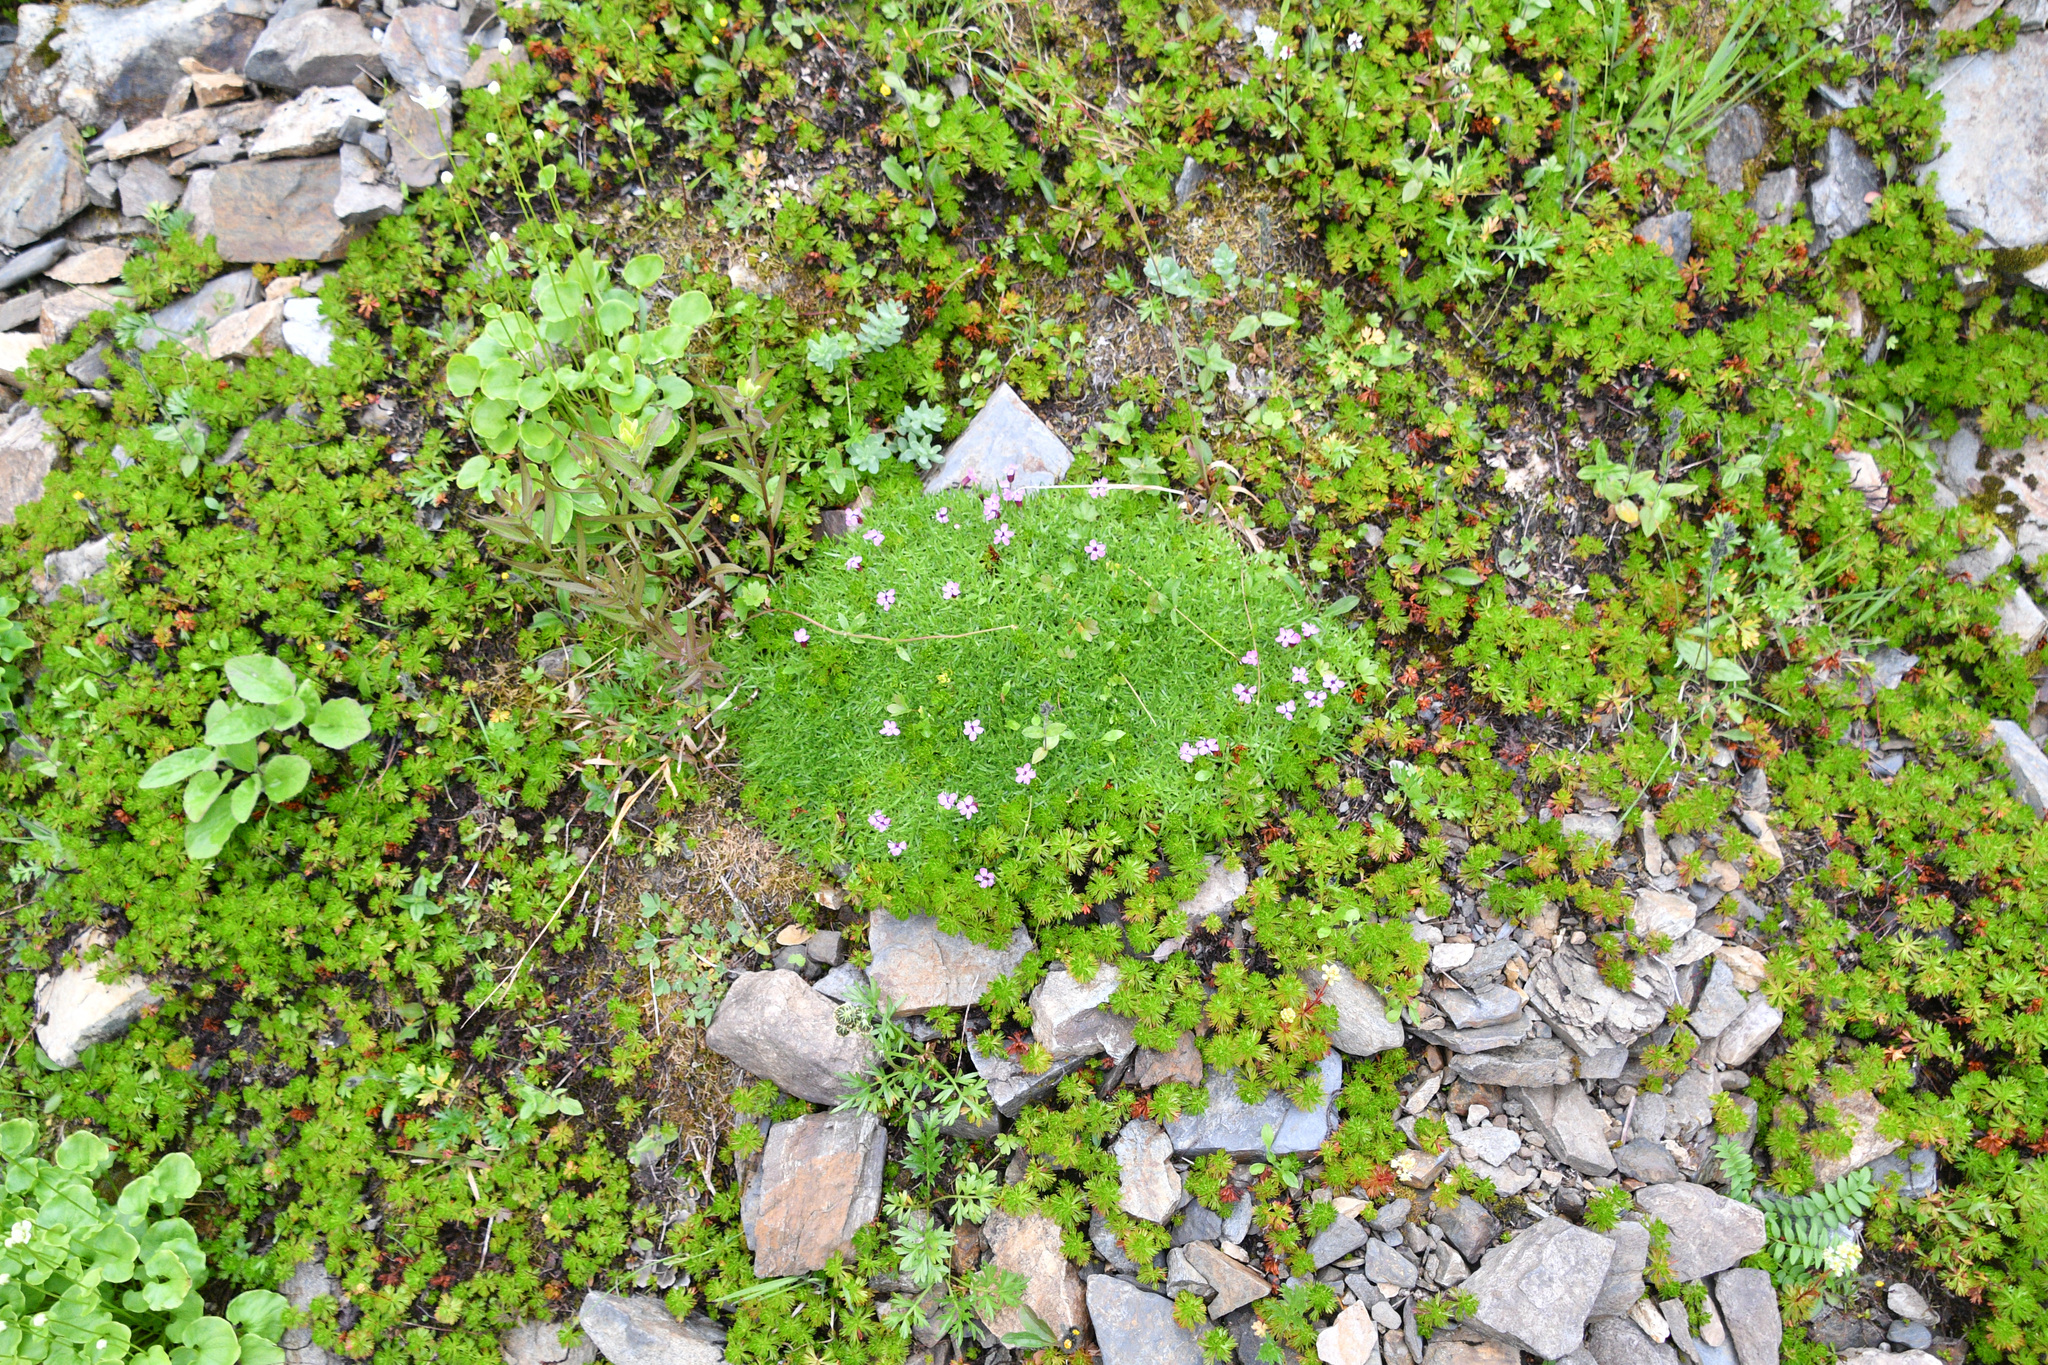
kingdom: Plantae
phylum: Tracheophyta
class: Magnoliopsida
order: Caryophyllales
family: Caryophyllaceae
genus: Silene
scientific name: Silene acaulis
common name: Moss campion
